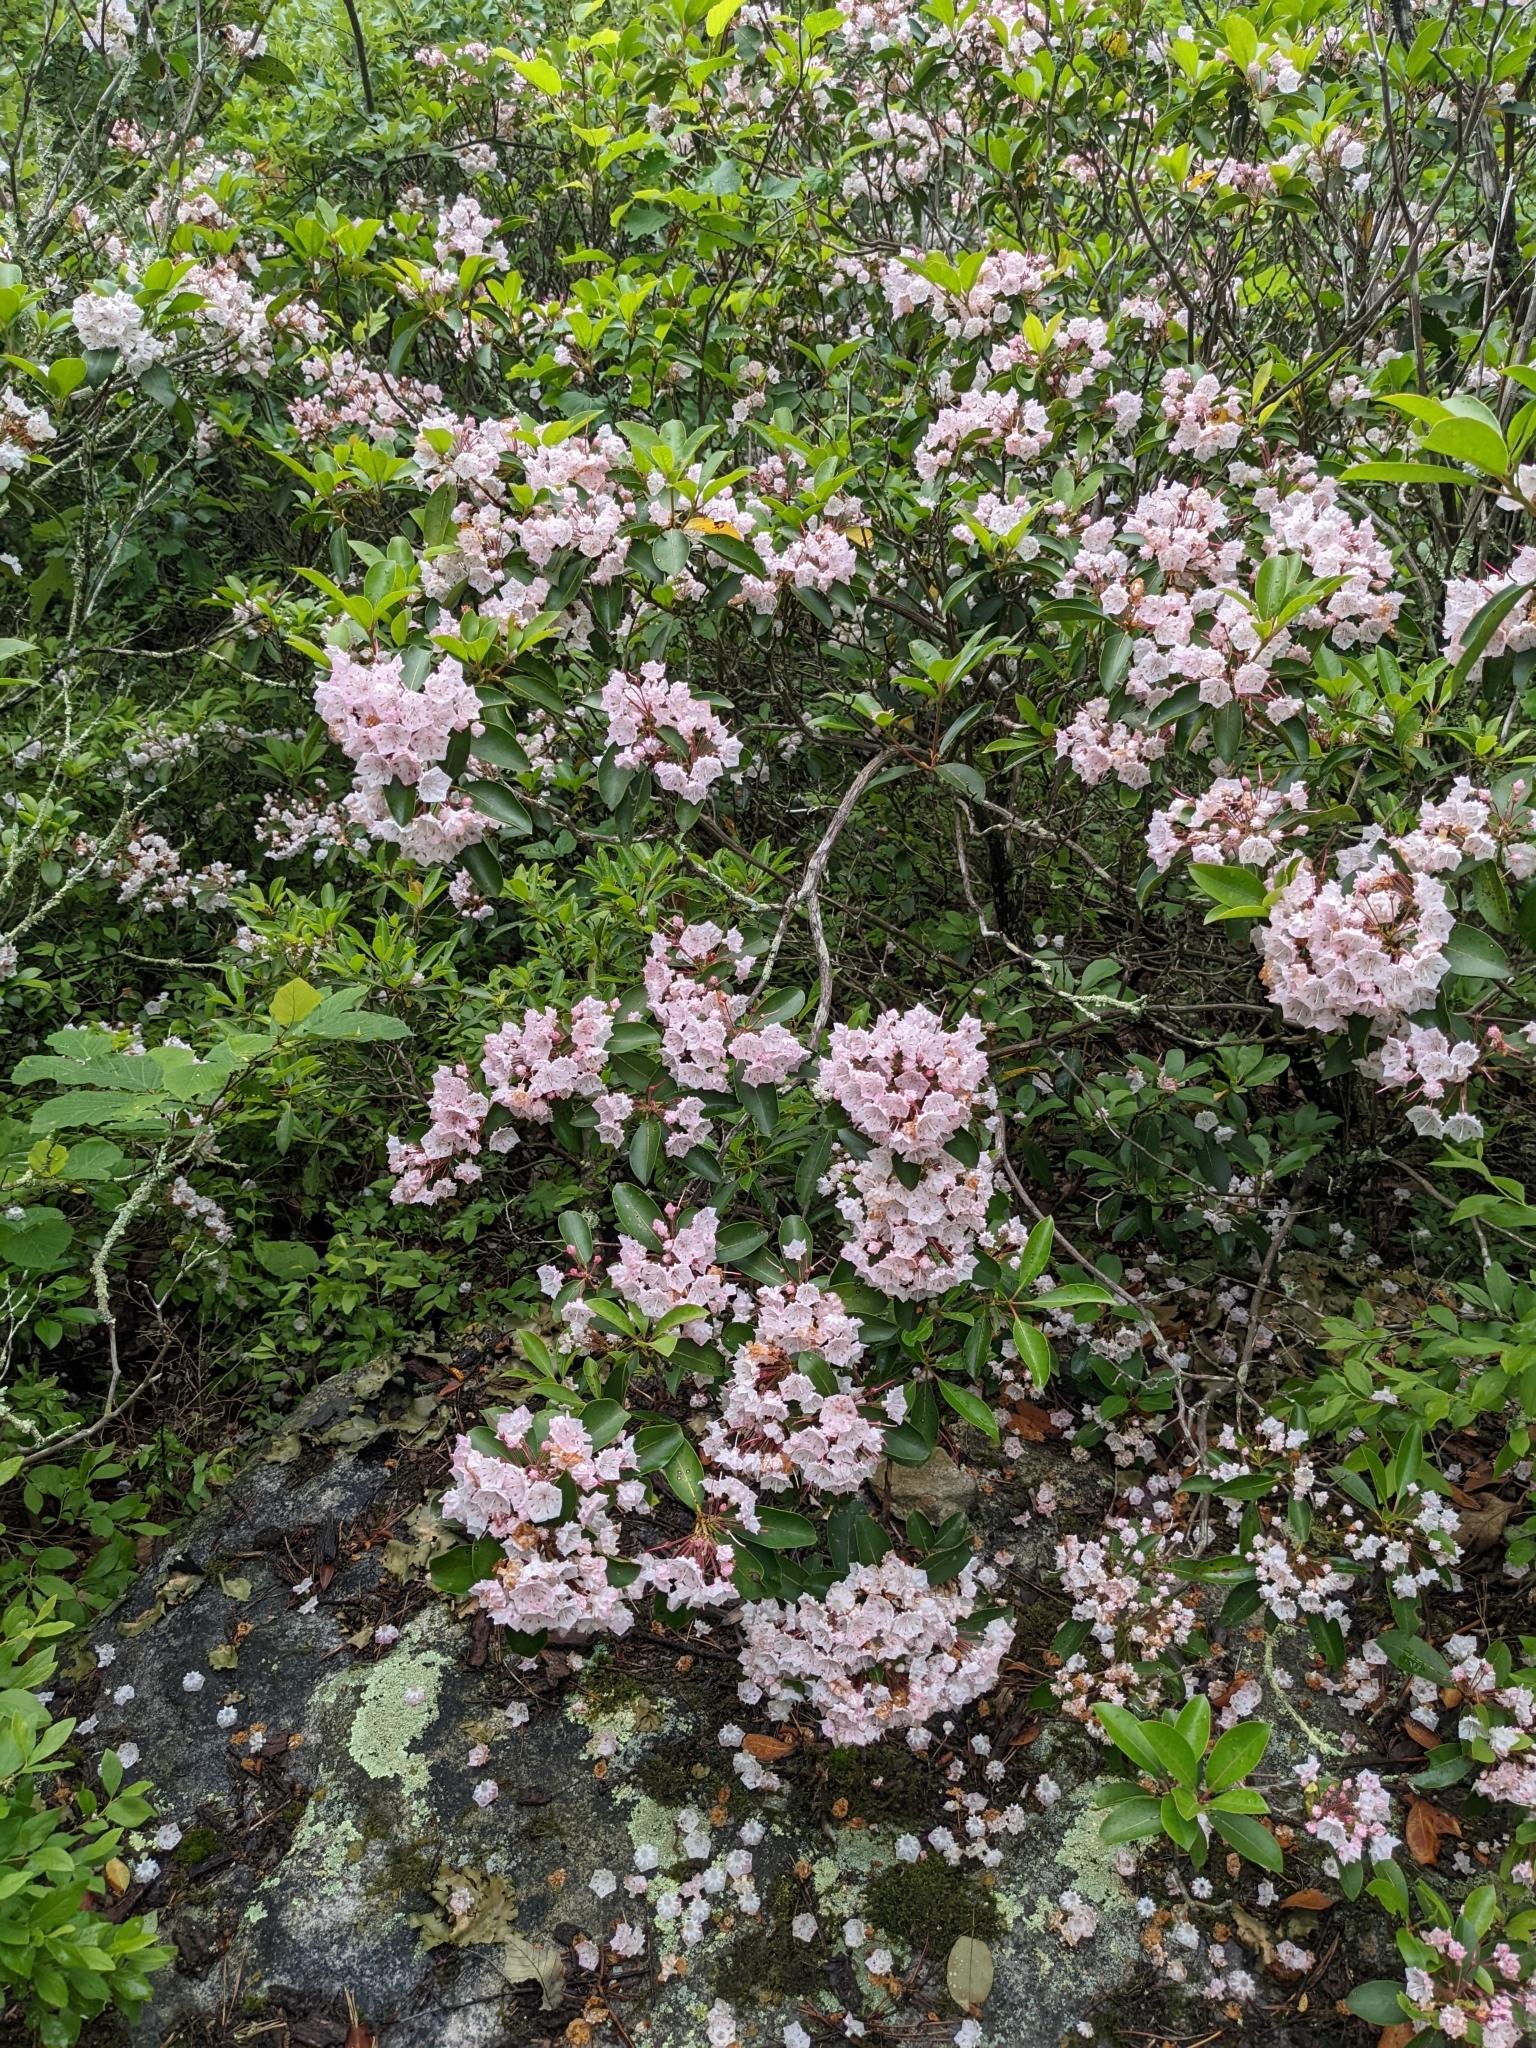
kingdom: Plantae
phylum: Tracheophyta
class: Magnoliopsida
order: Ericales
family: Ericaceae
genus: Kalmia
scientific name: Kalmia latifolia
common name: Mountain-laurel
